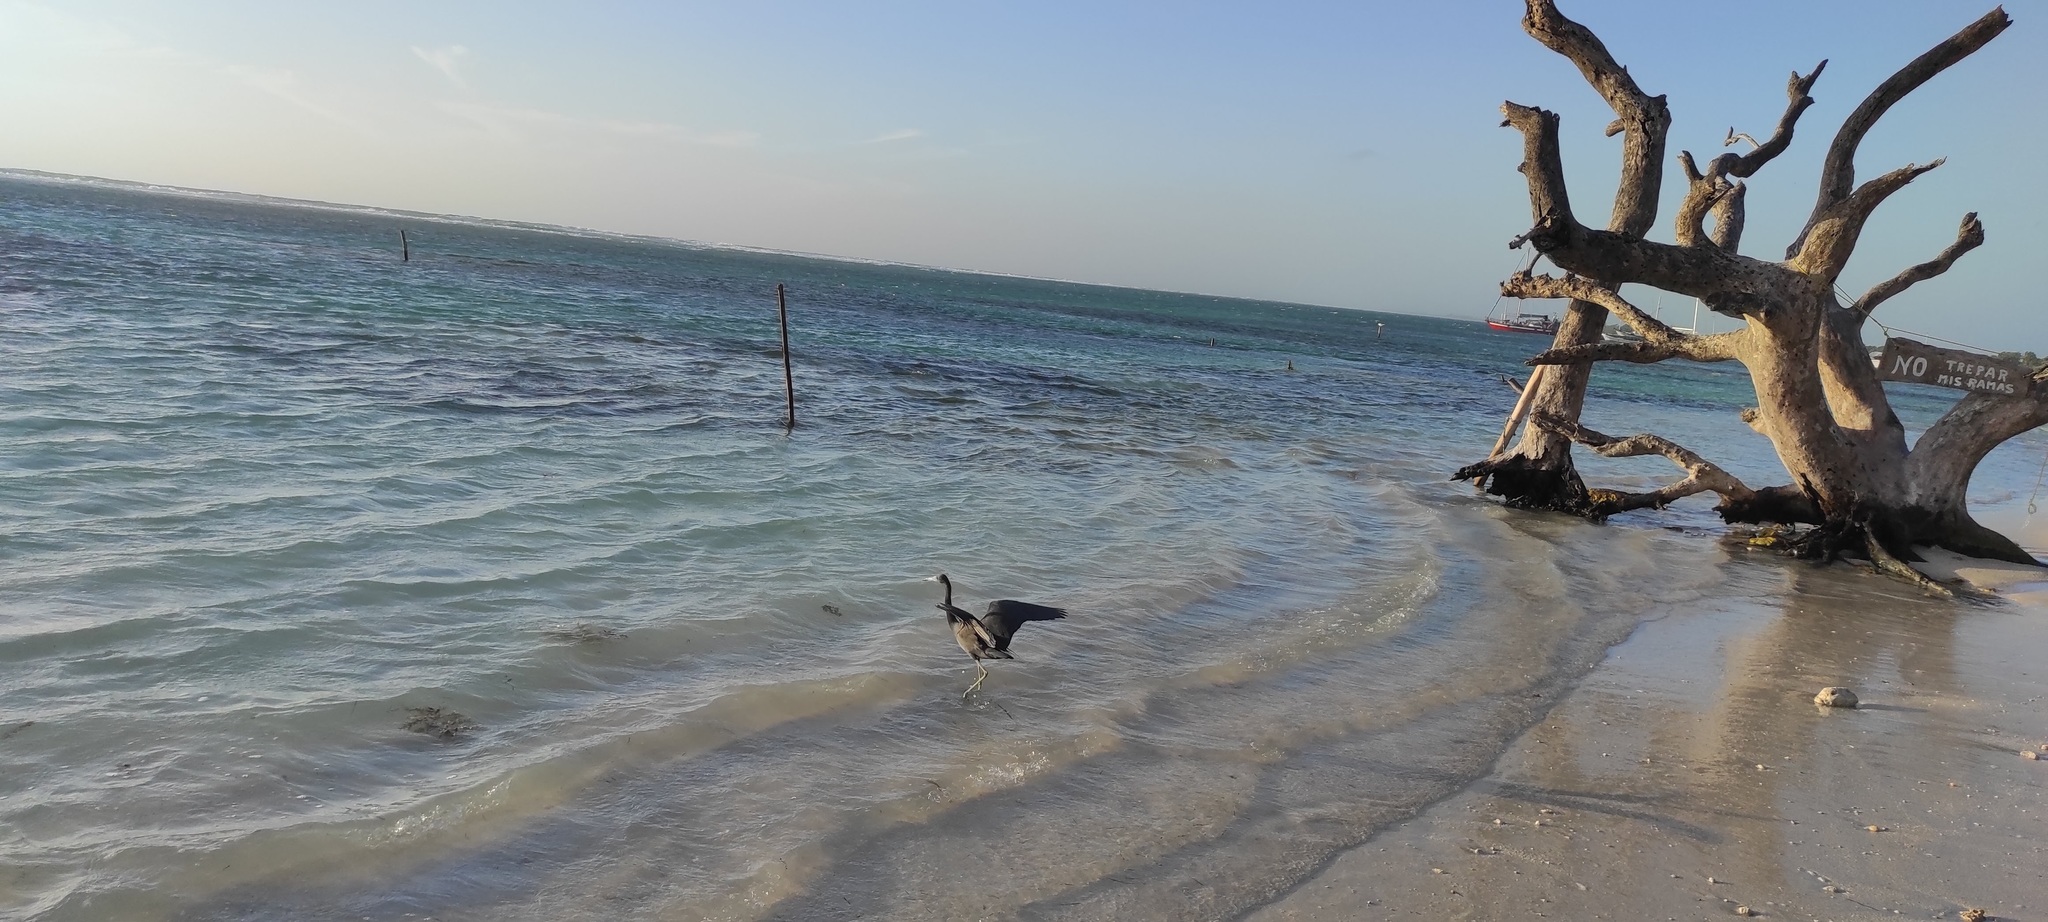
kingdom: Animalia
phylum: Chordata
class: Aves
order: Pelecaniformes
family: Ardeidae
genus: Egretta
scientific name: Egretta caerulea
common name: Little blue heron
